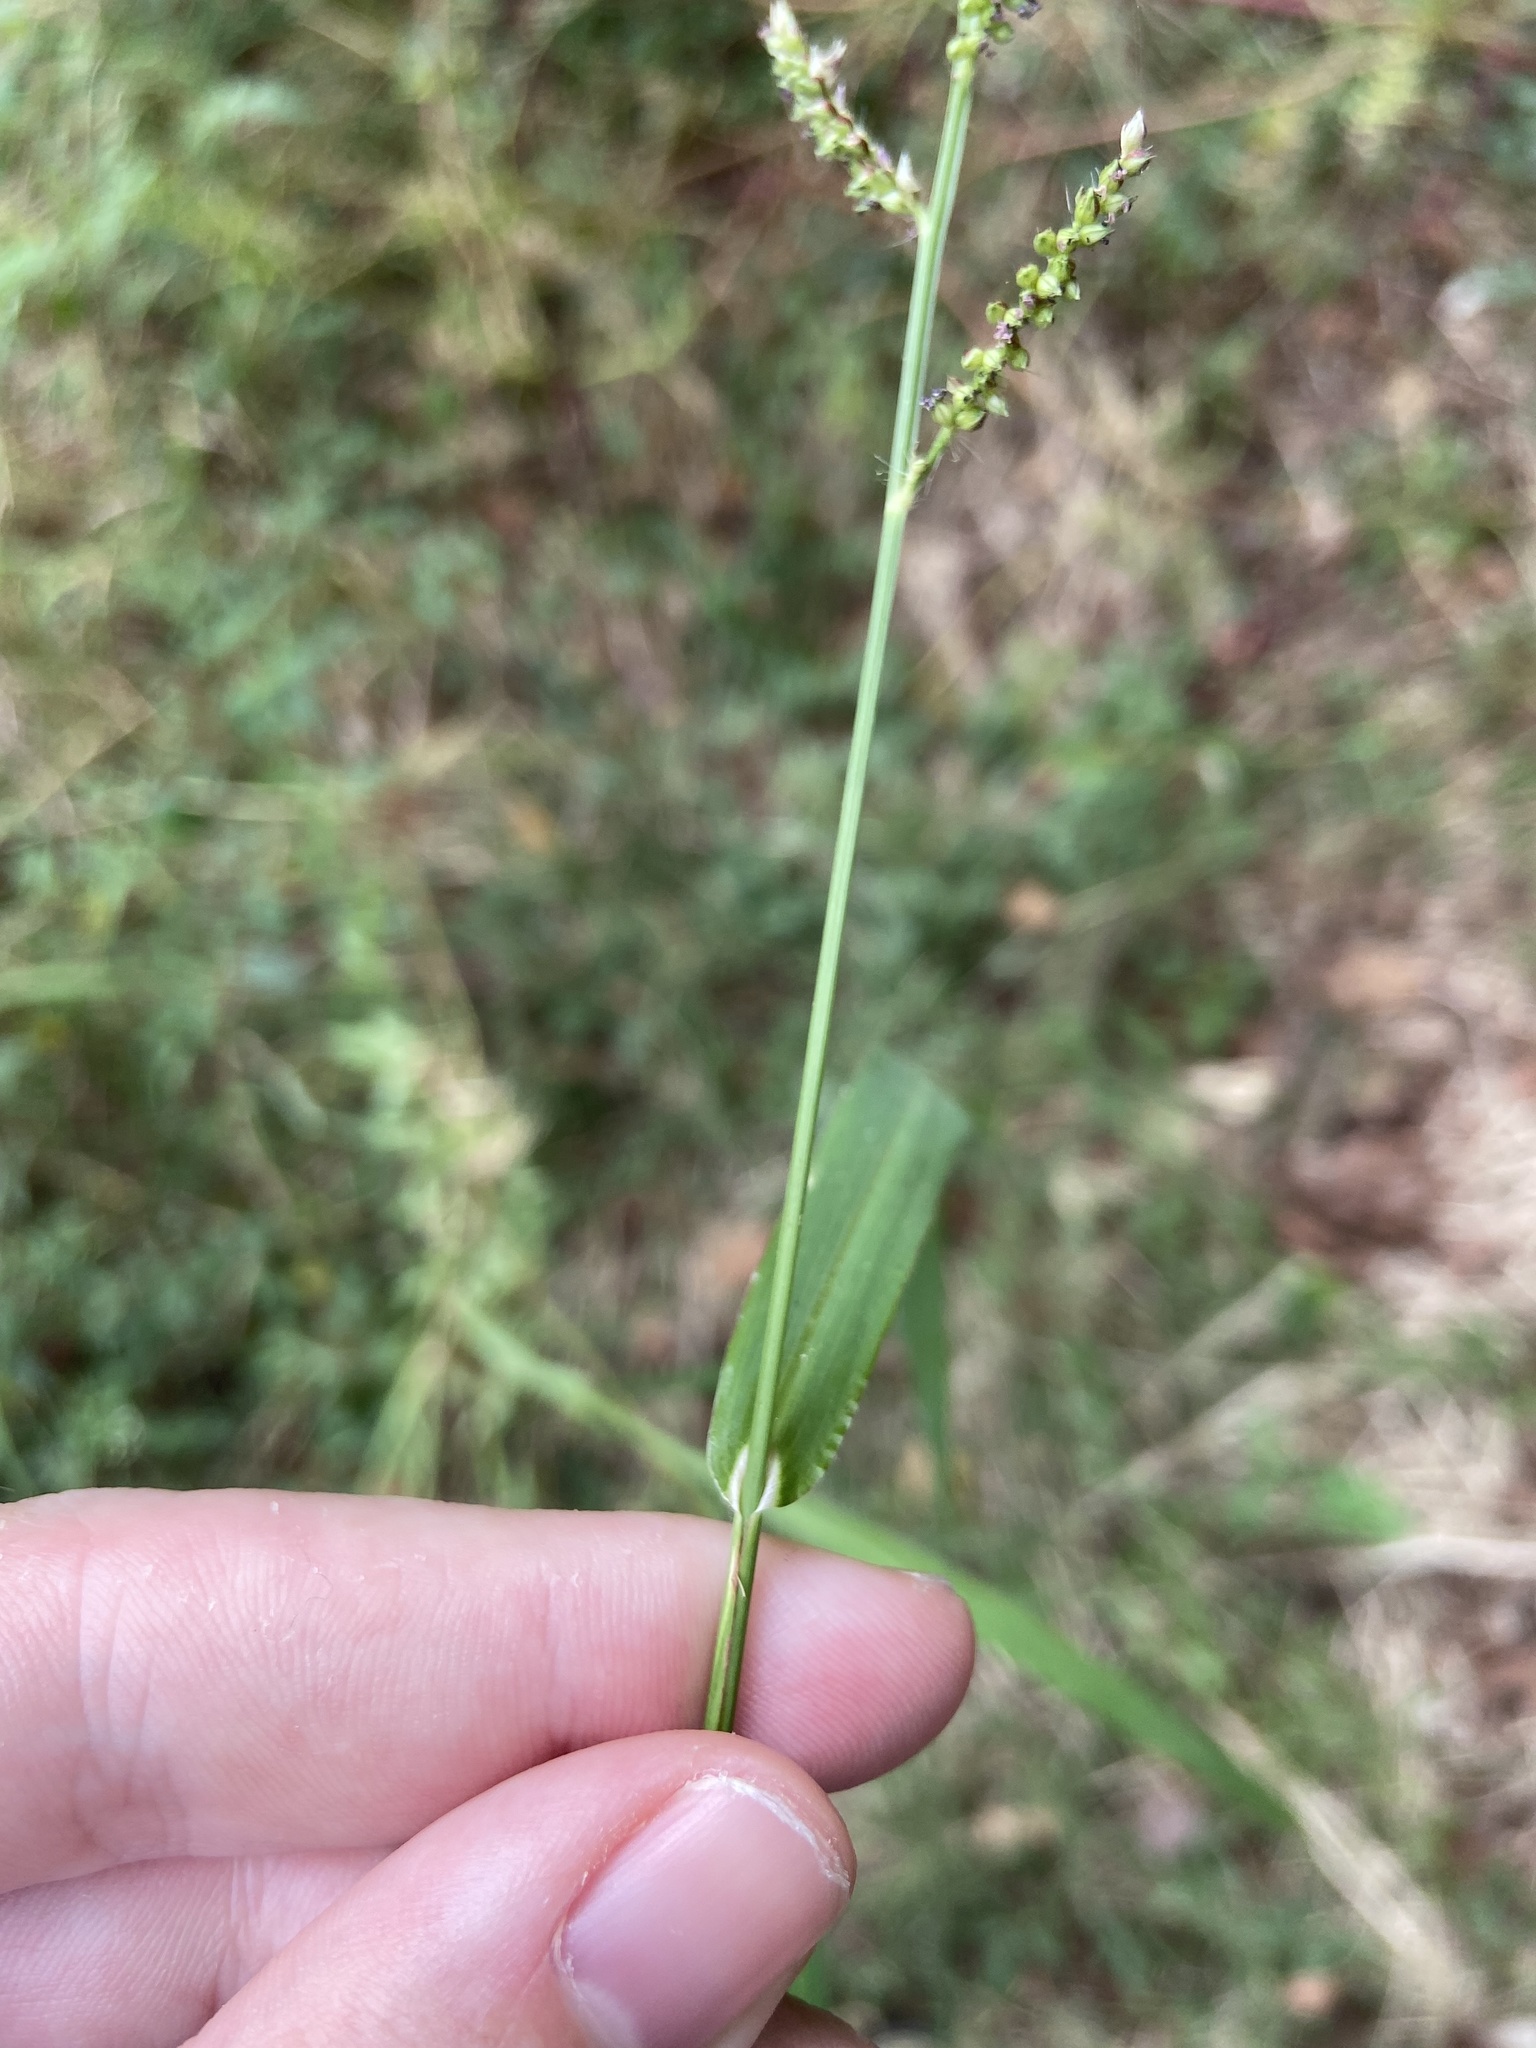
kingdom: Plantae
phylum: Tracheophyta
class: Liliopsida
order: Poales
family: Poaceae
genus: Echinochloa
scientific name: Echinochloa colonum
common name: Jungle rice
